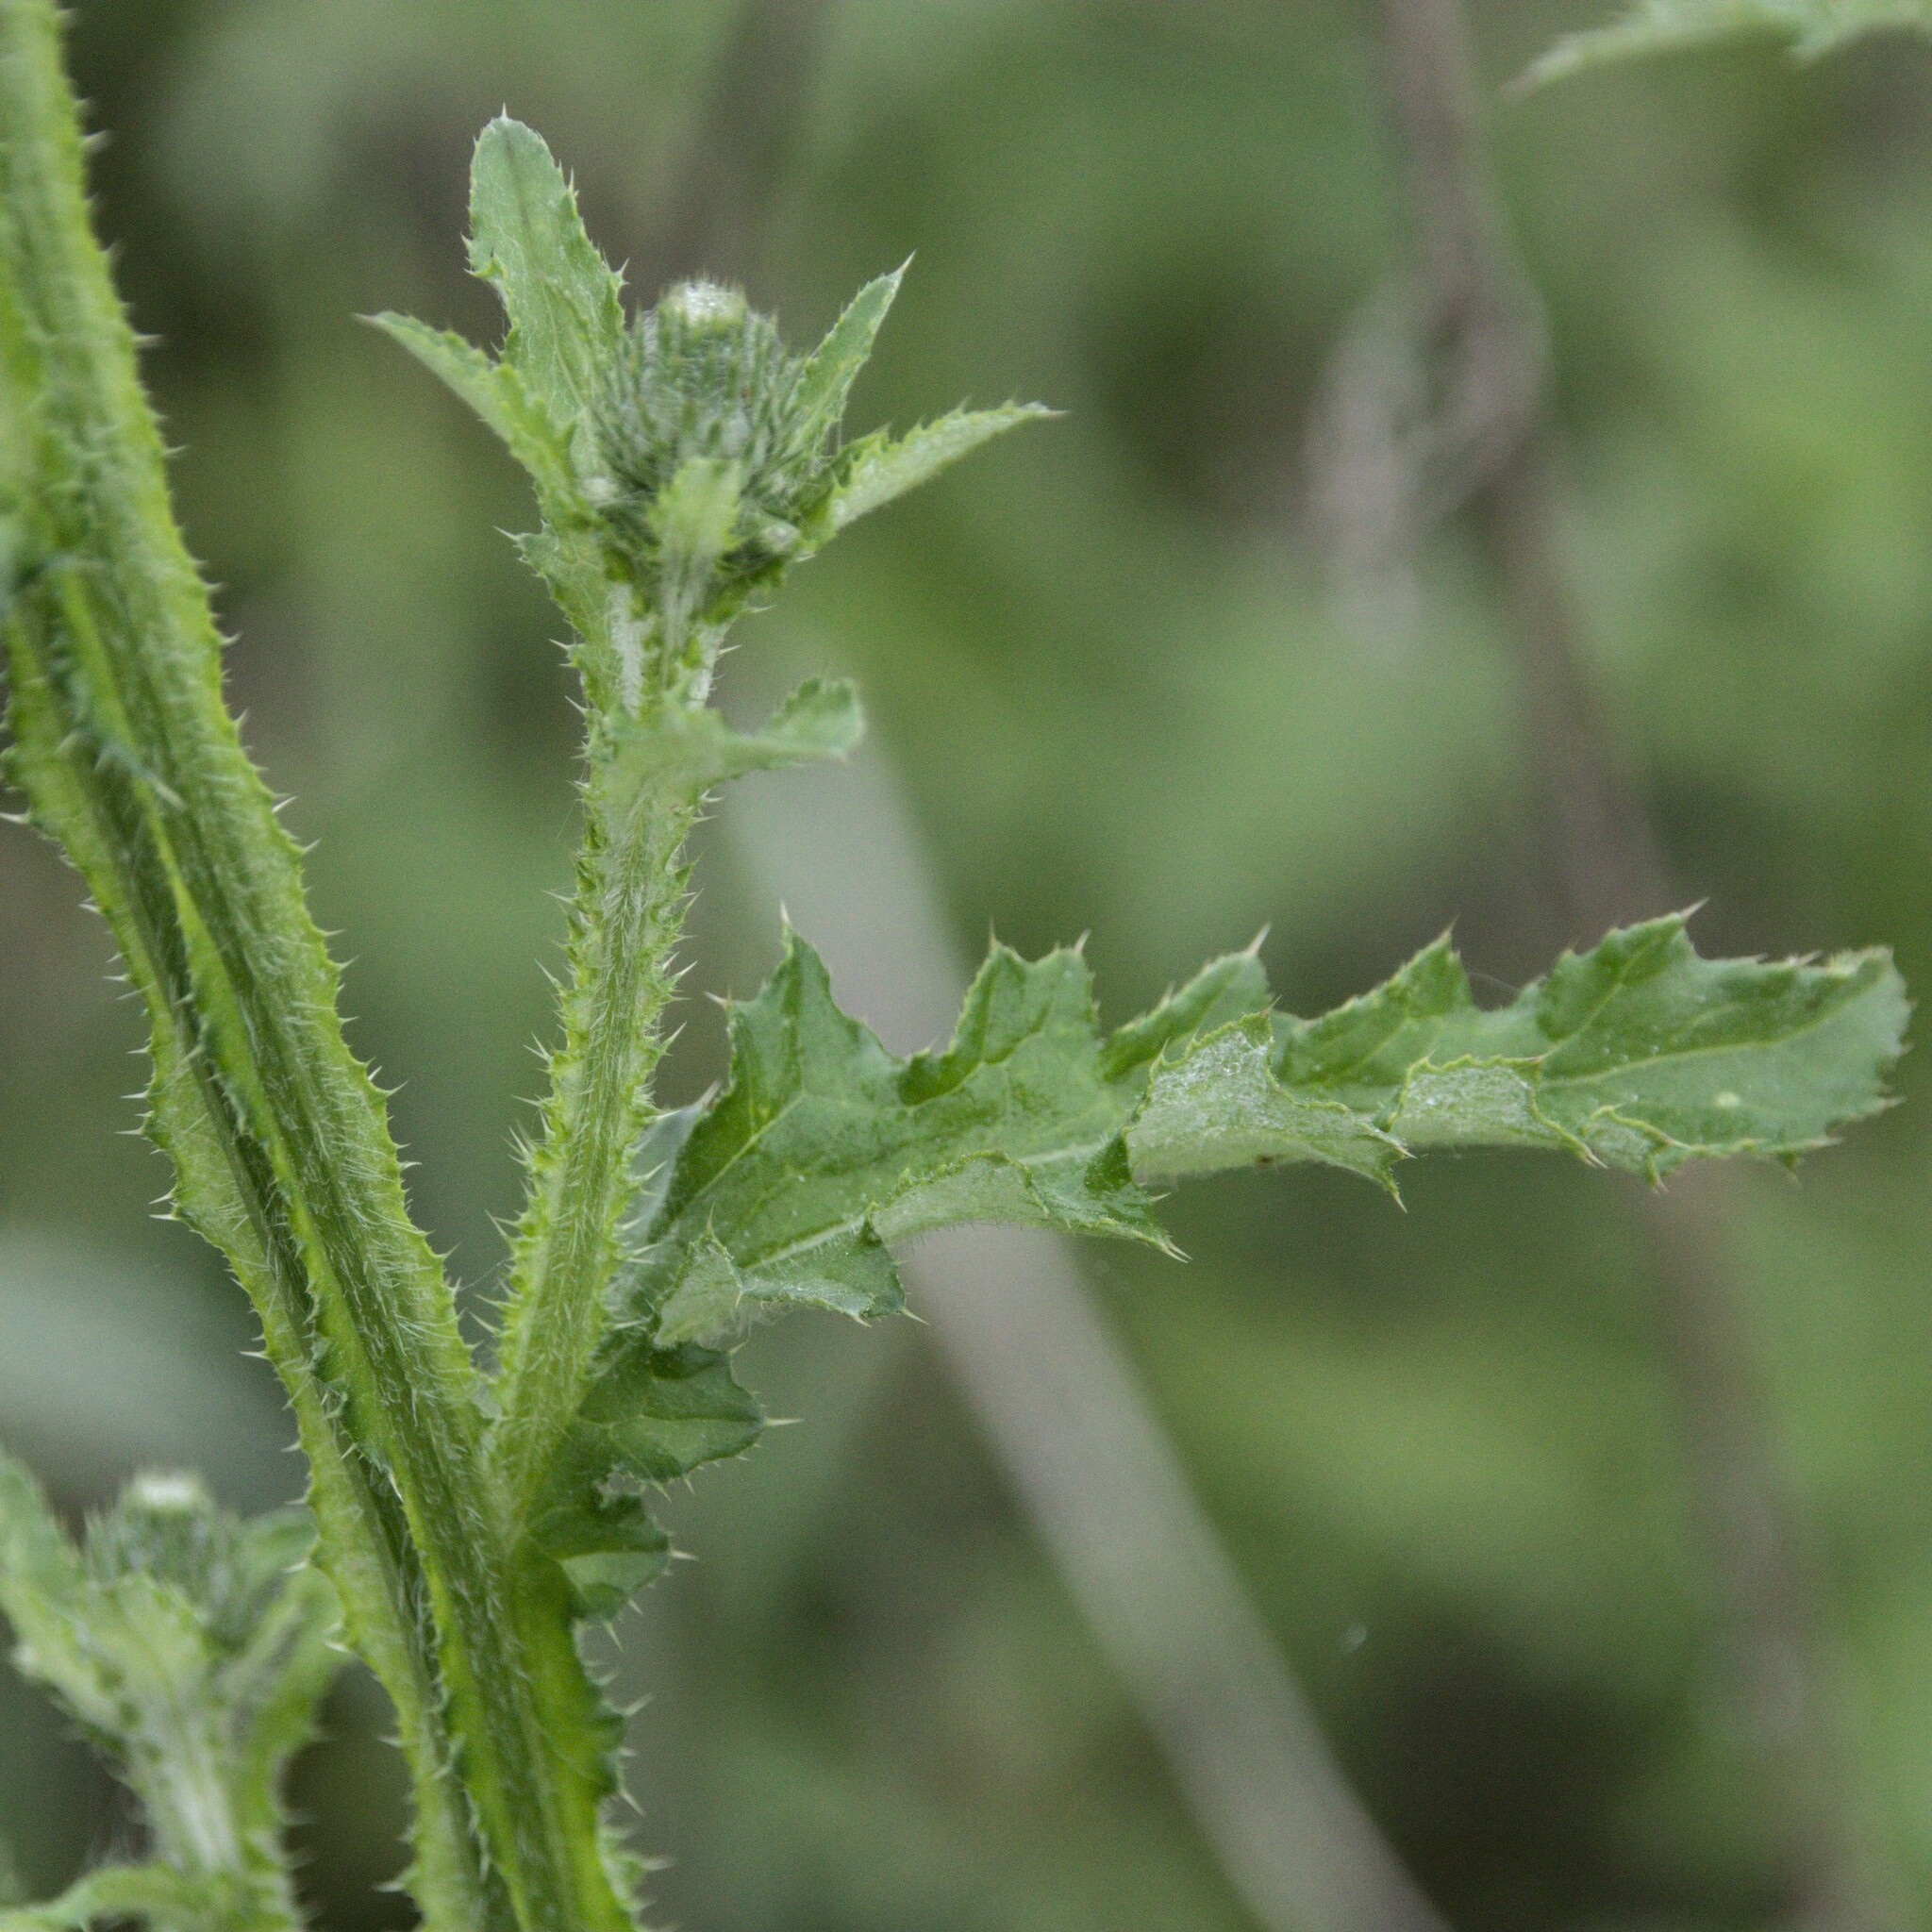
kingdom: Plantae
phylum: Tracheophyta
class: Magnoliopsida
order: Asterales
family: Asteraceae
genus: Carduus
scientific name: Carduus crispus
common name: Welted thistle
